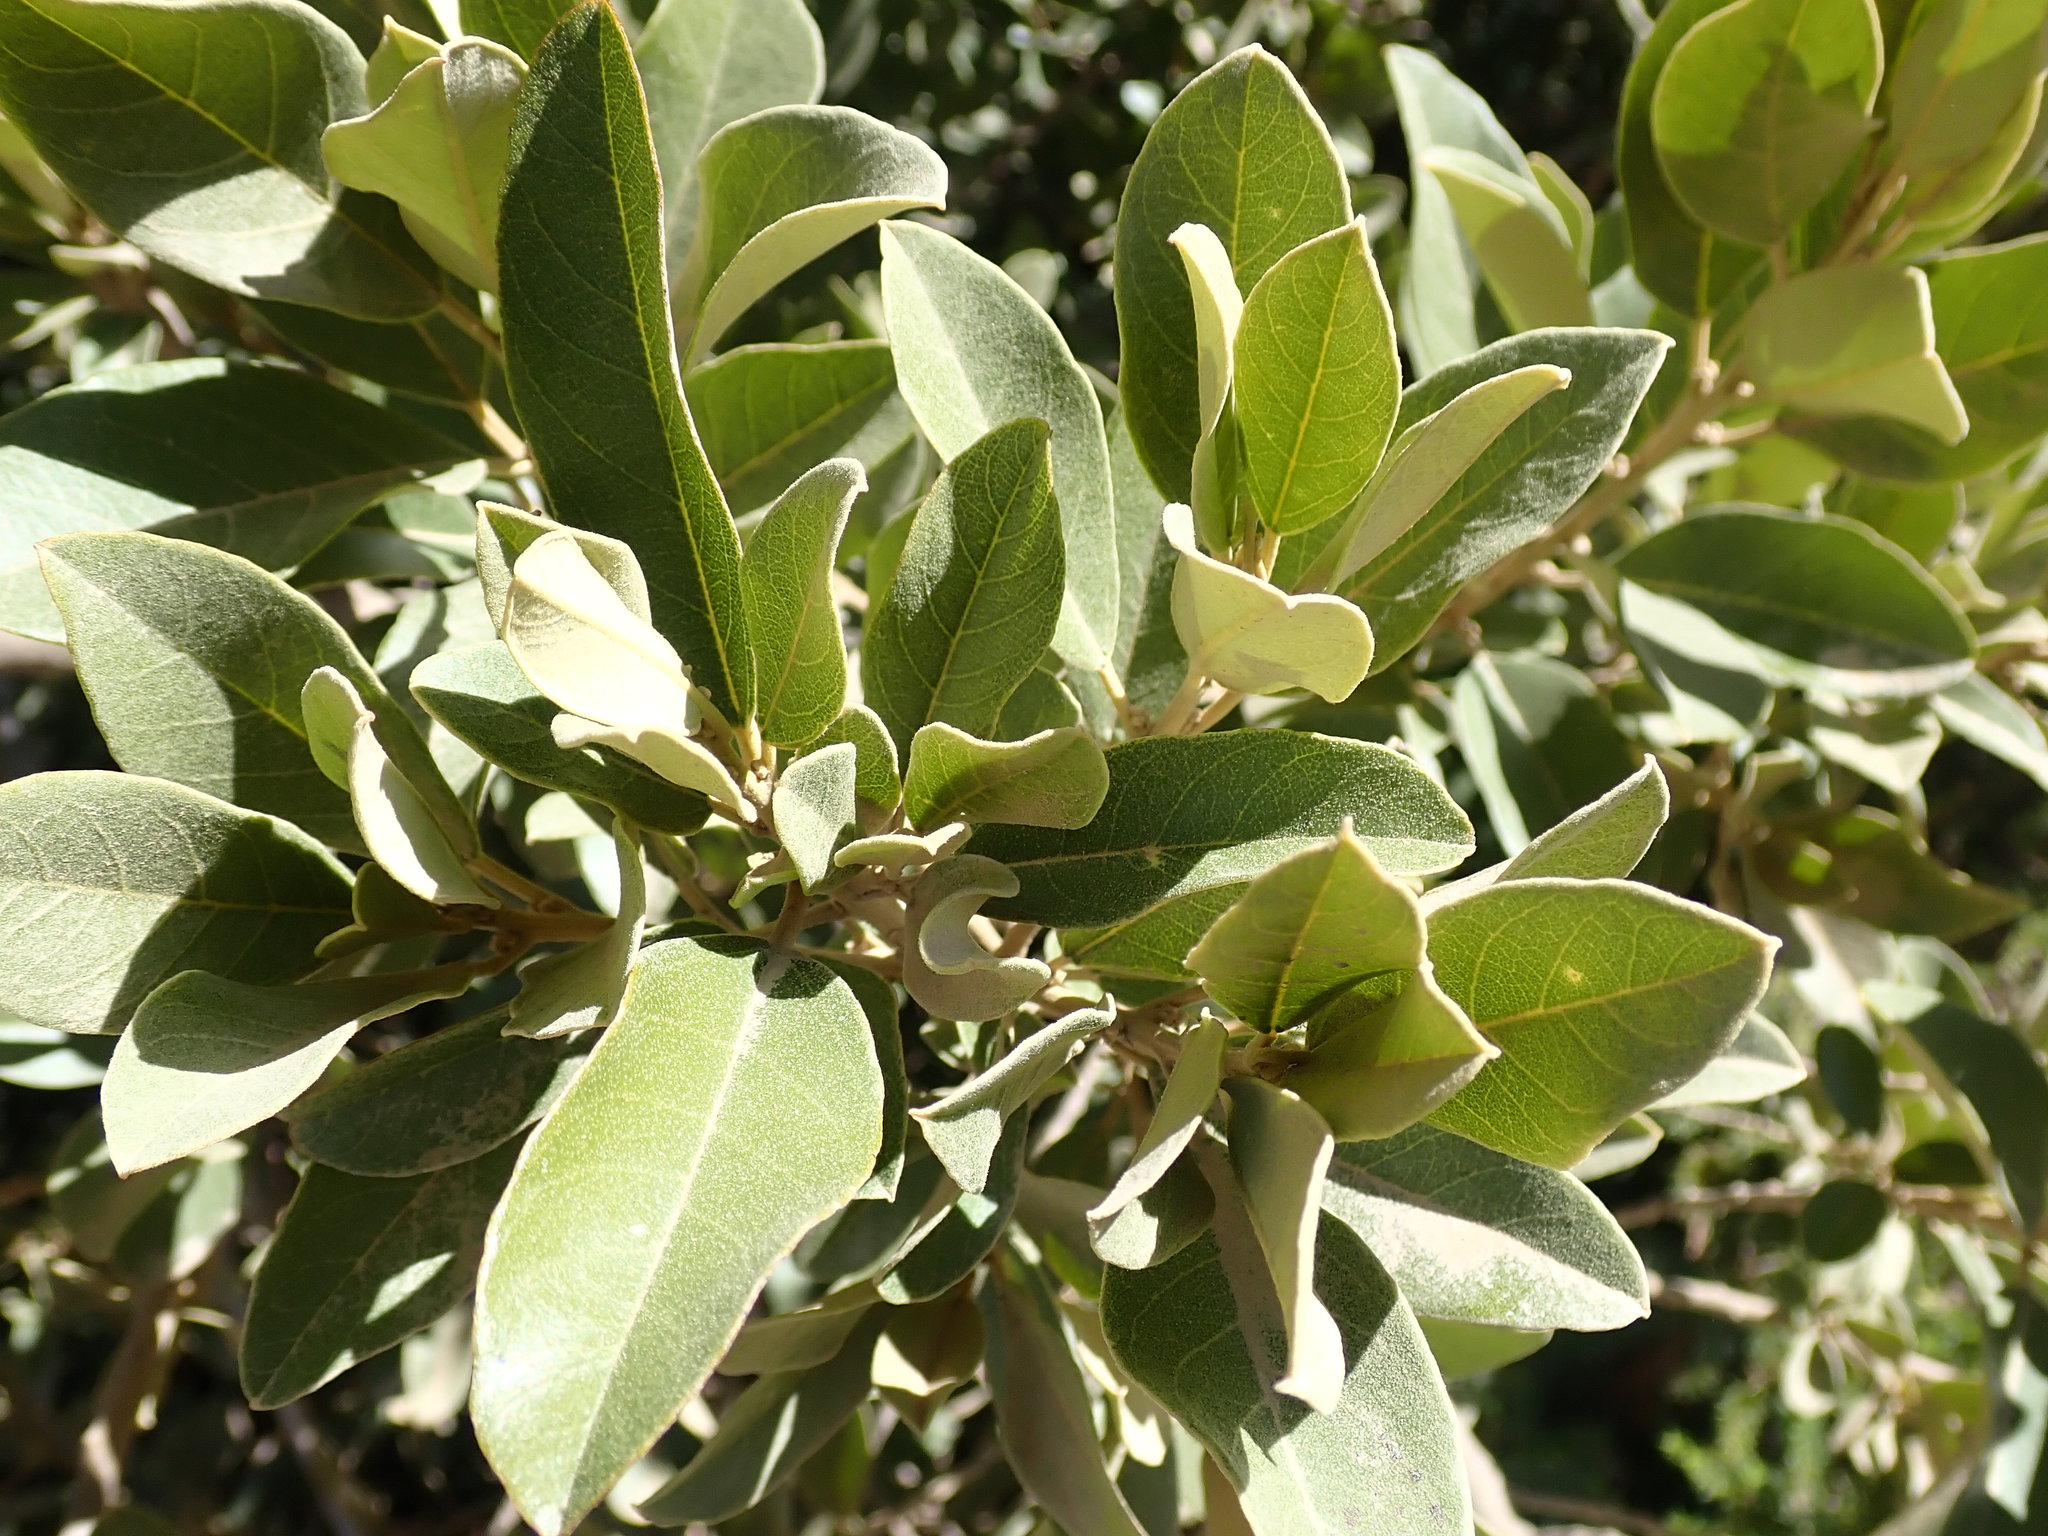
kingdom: Plantae
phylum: Tracheophyta
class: Magnoliopsida
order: Malpighiales
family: Achariaceae
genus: Kiggelaria
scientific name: Kiggelaria africana
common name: Wild peach
